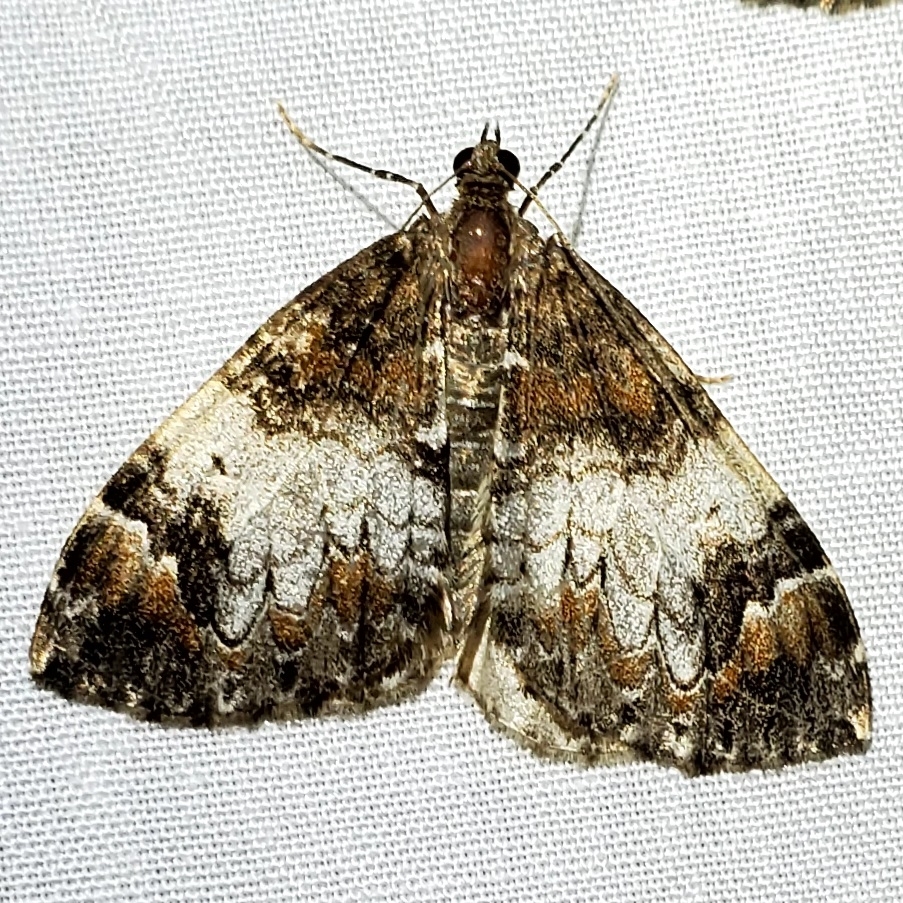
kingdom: Animalia
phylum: Arthropoda
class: Insecta
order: Lepidoptera
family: Geometridae
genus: Dysstroma
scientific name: Dysstroma truncata
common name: Common marbled carpet
